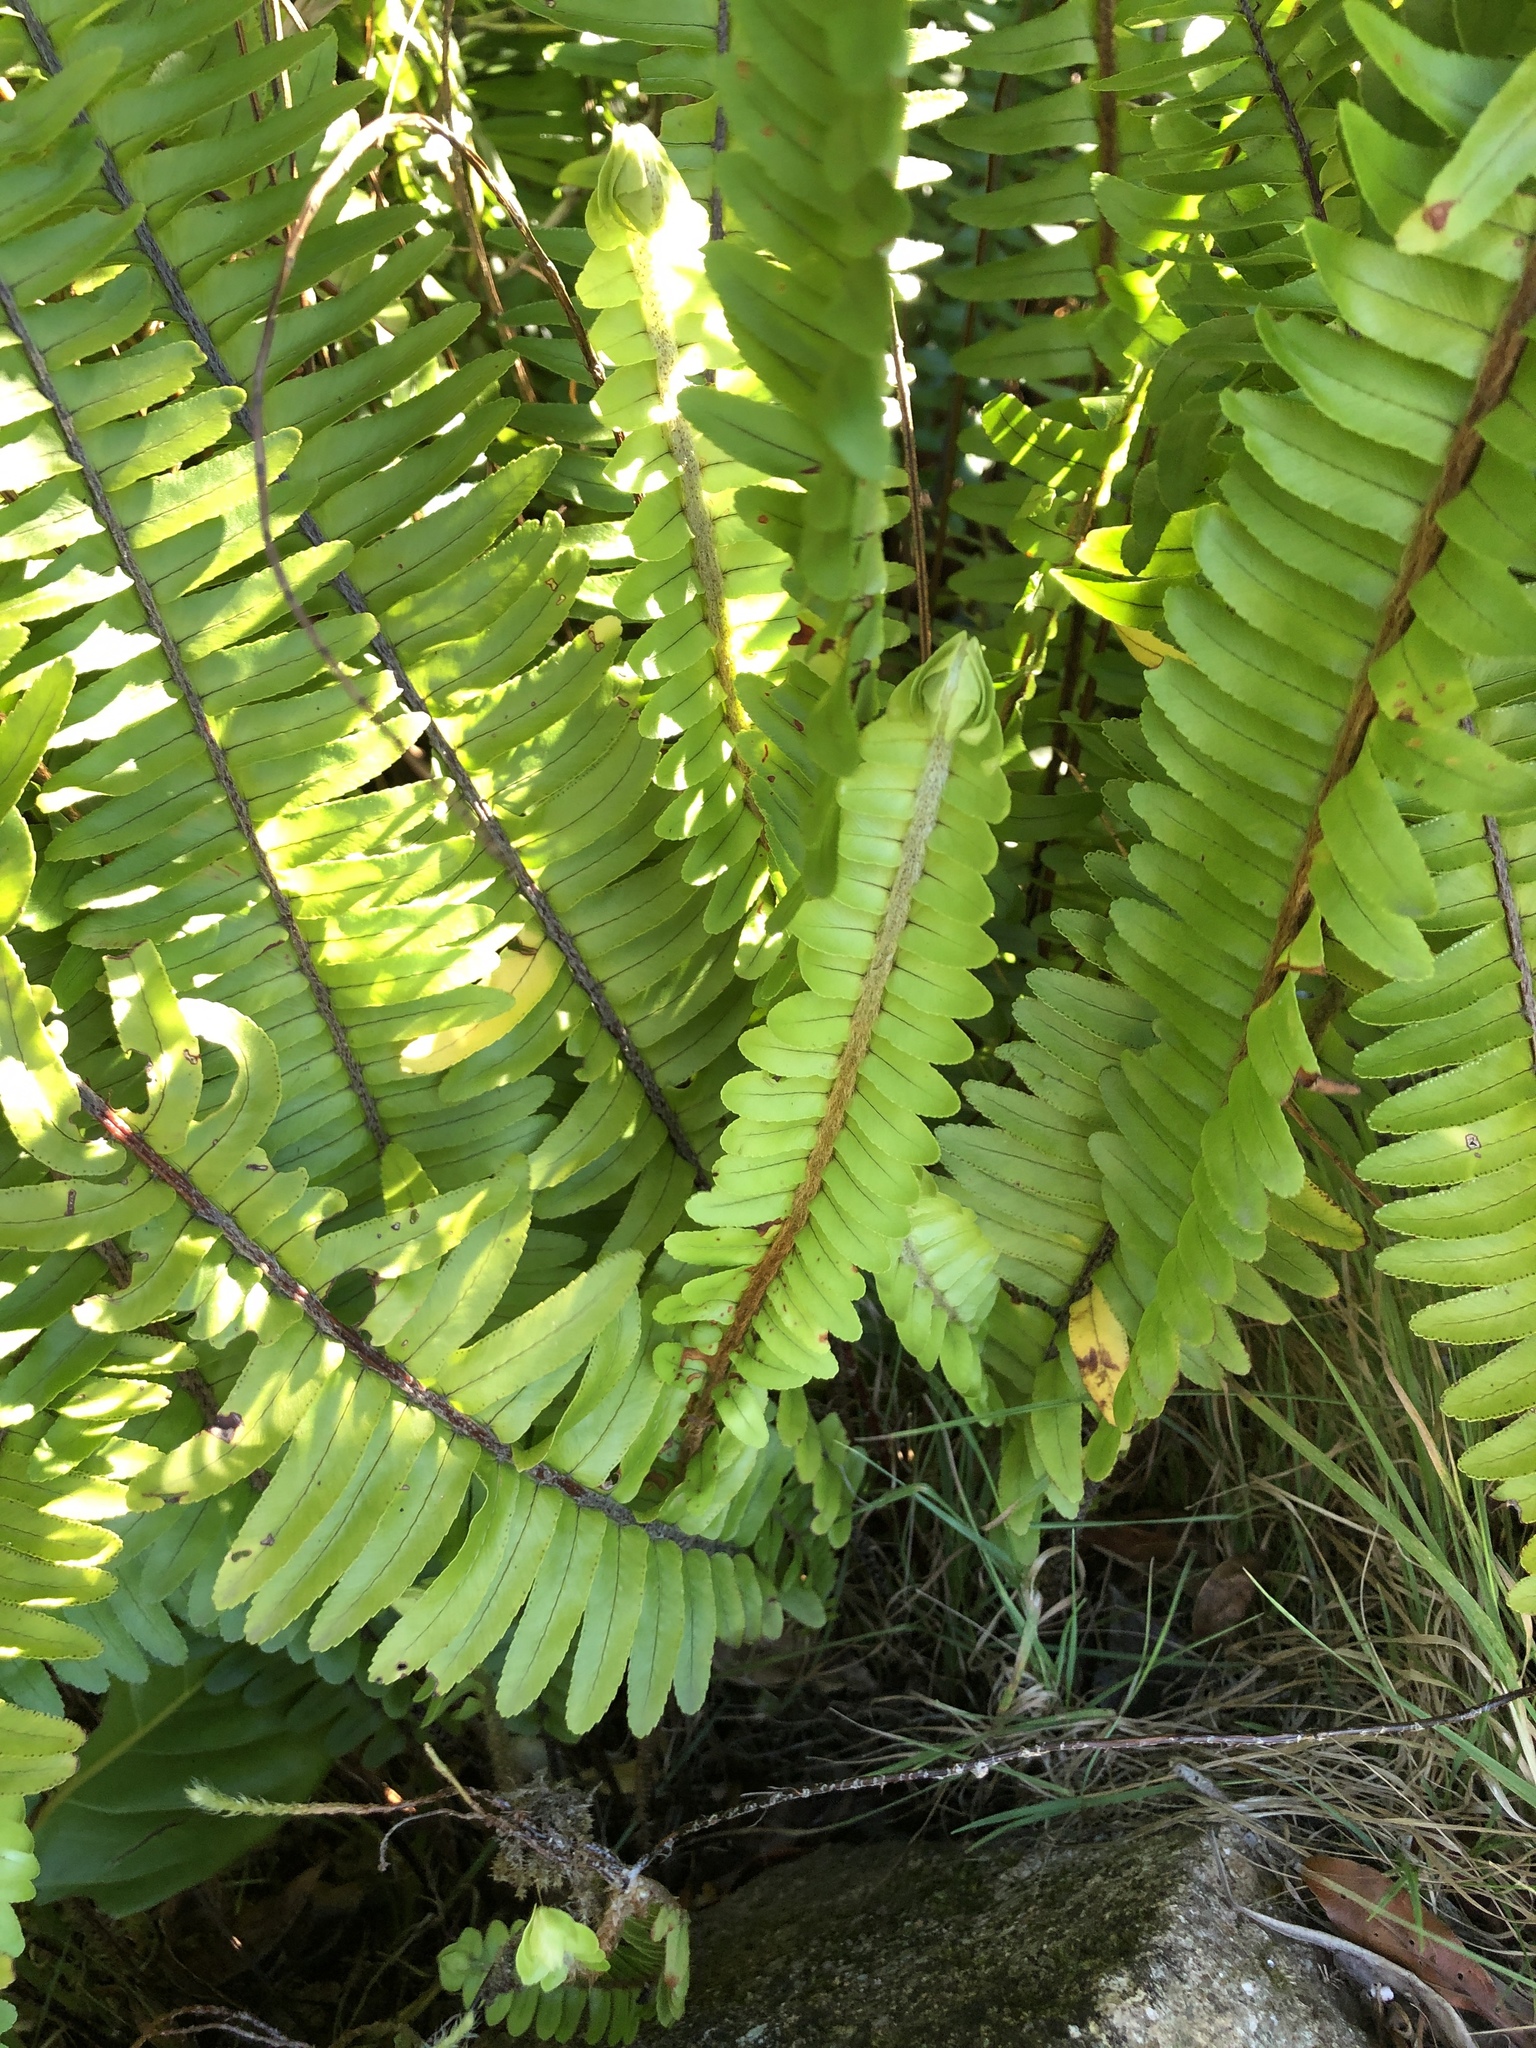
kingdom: Plantae
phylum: Tracheophyta
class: Polypodiopsida
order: Polypodiales
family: Nephrolepidaceae
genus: Nephrolepis
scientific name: Nephrolepis cordifolia
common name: Narrow swordfern
